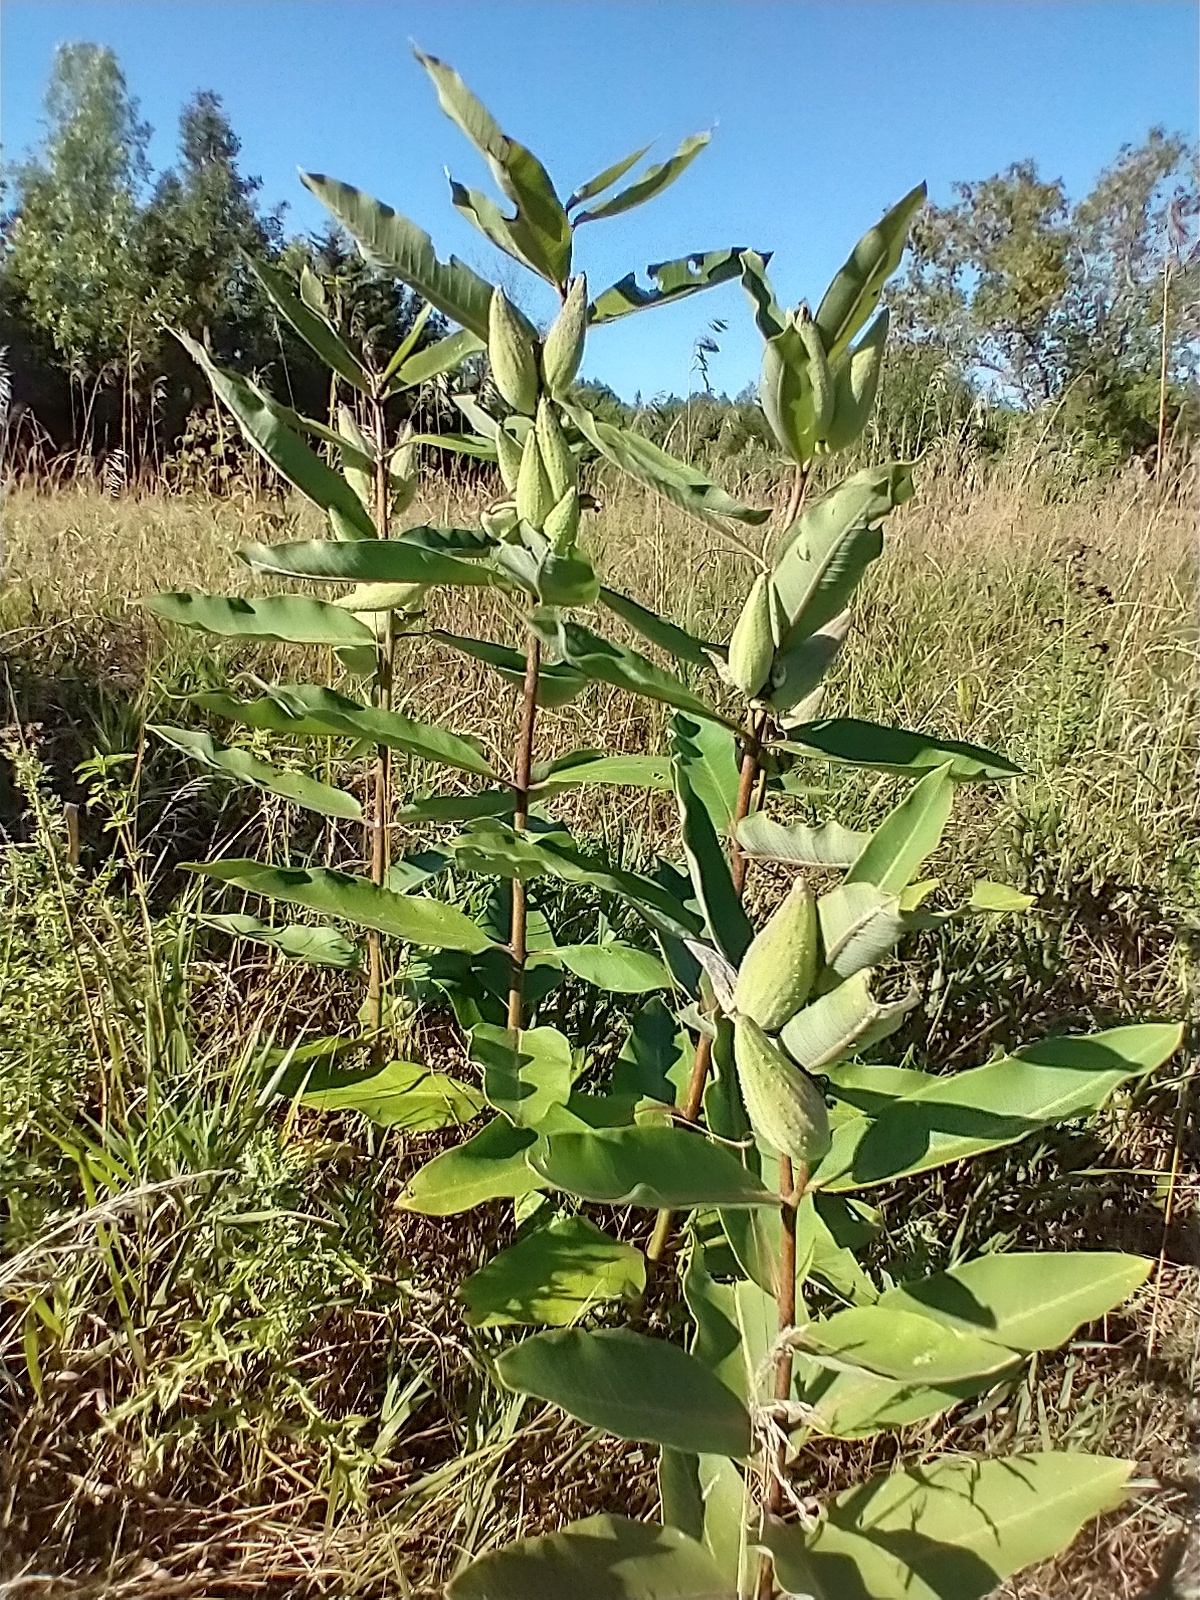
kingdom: Plantae
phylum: Tracheophyta
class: Magnoliopsida
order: Gentianales
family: Apocynaceae
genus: Asclepias
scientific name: Asclepias syriaca
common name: Common milkweed
